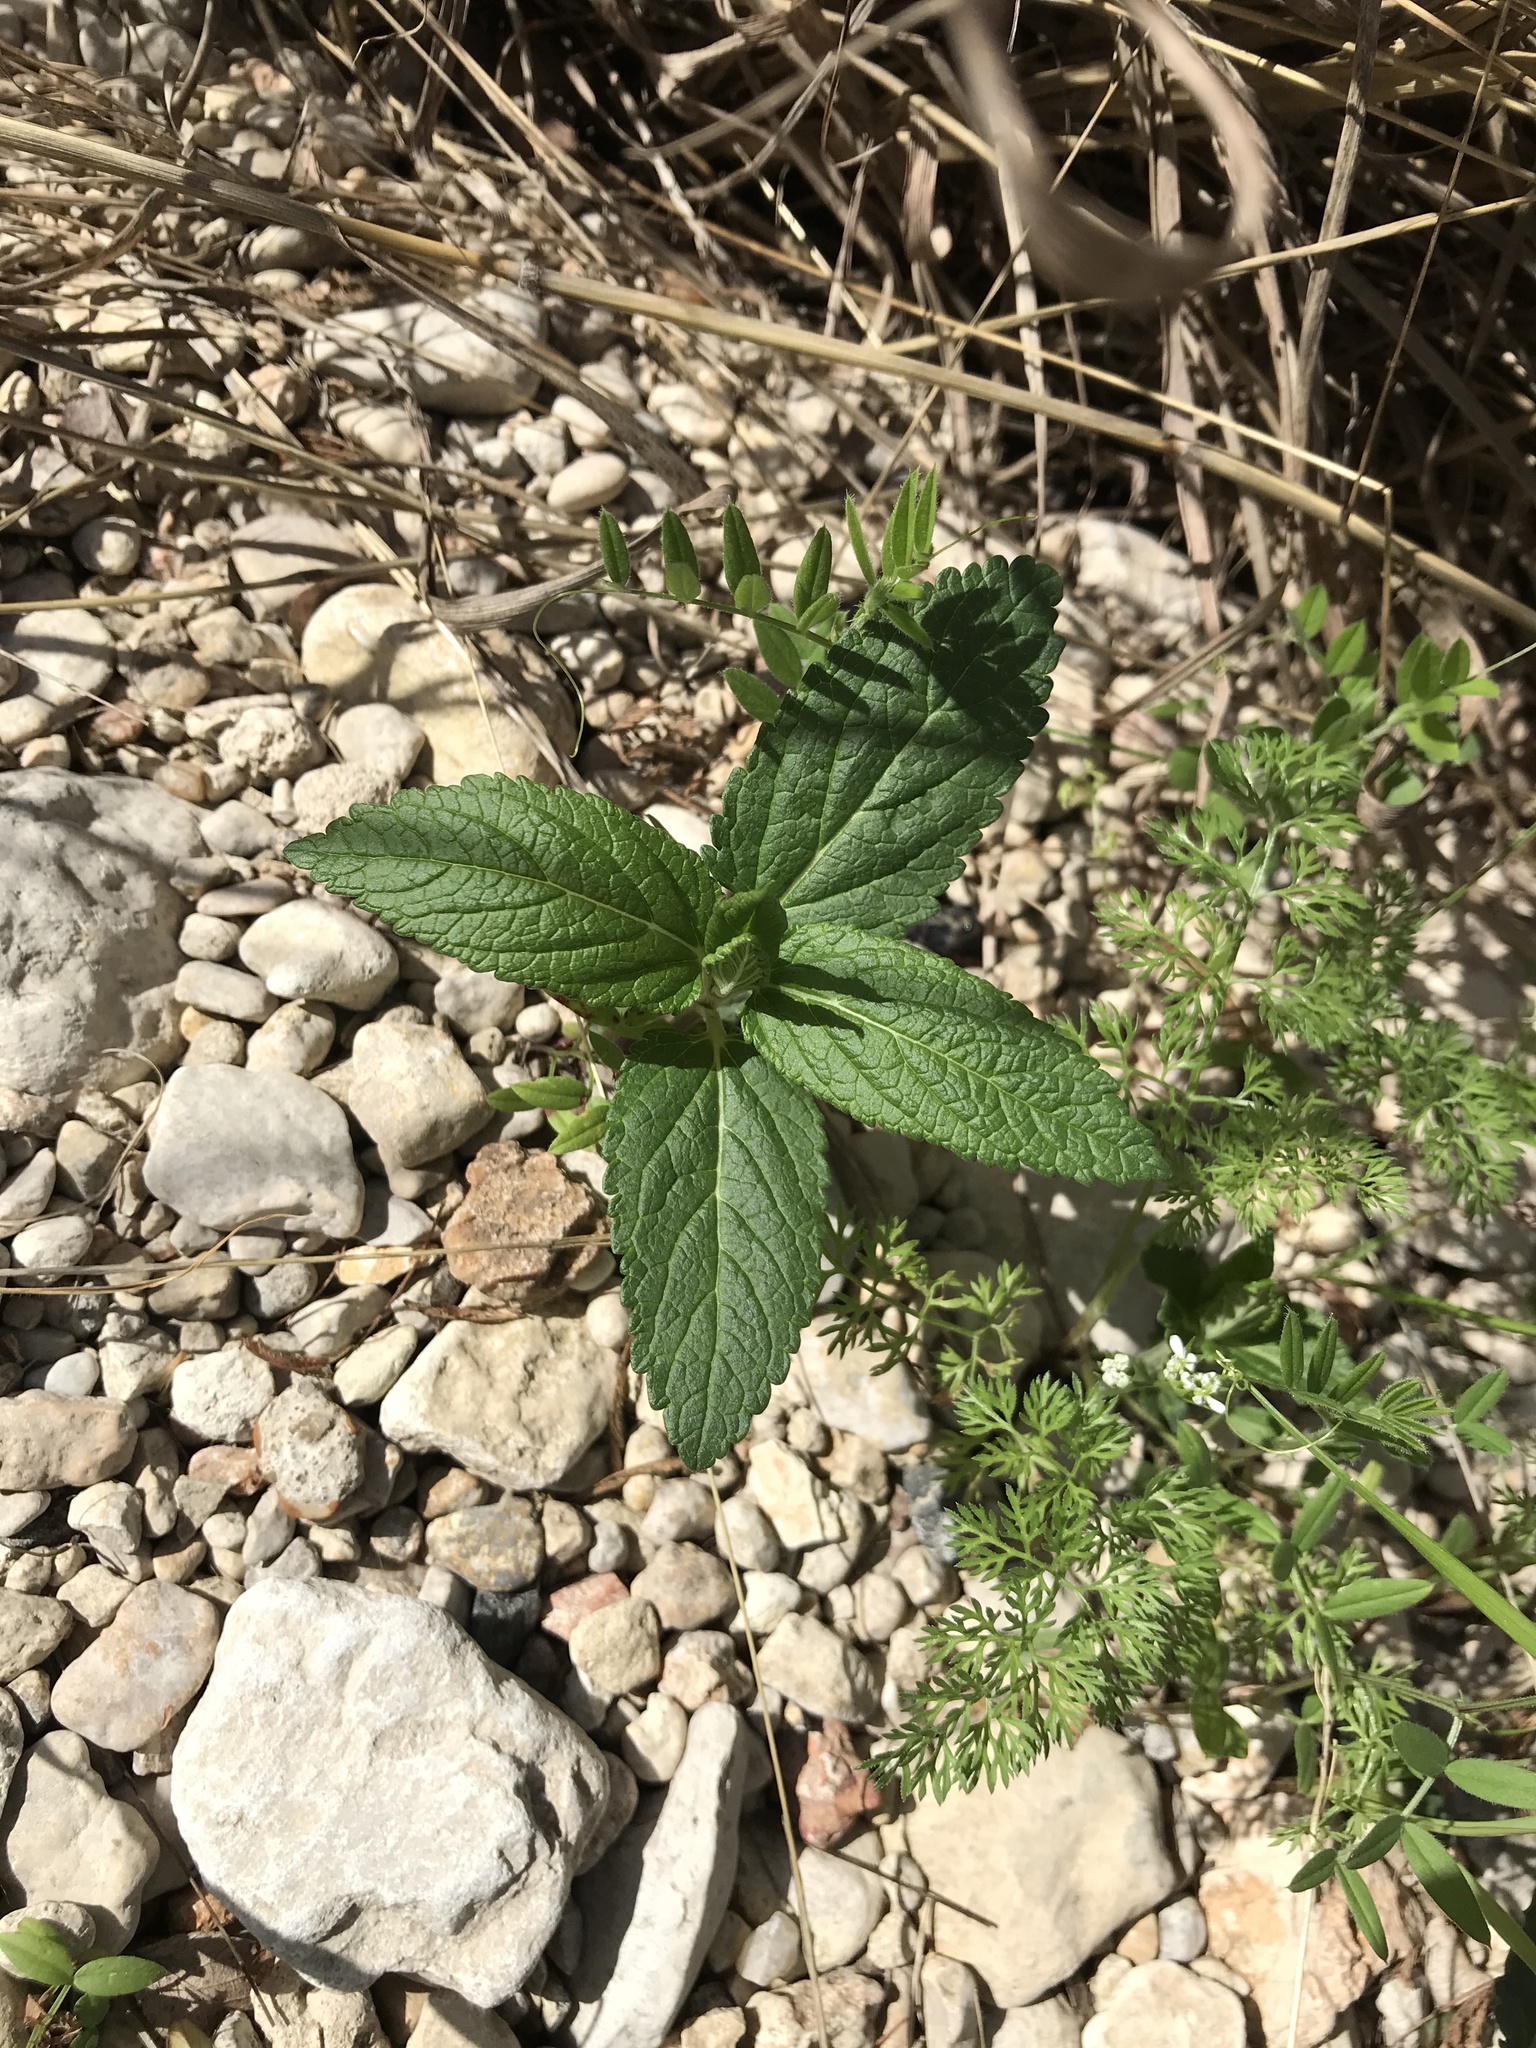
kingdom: Plantae
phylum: Tracheophyta
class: Magnoliopsida
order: Lamiales
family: Lamiaceae
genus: Teucrium
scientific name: Teucrium canadense
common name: American germander
